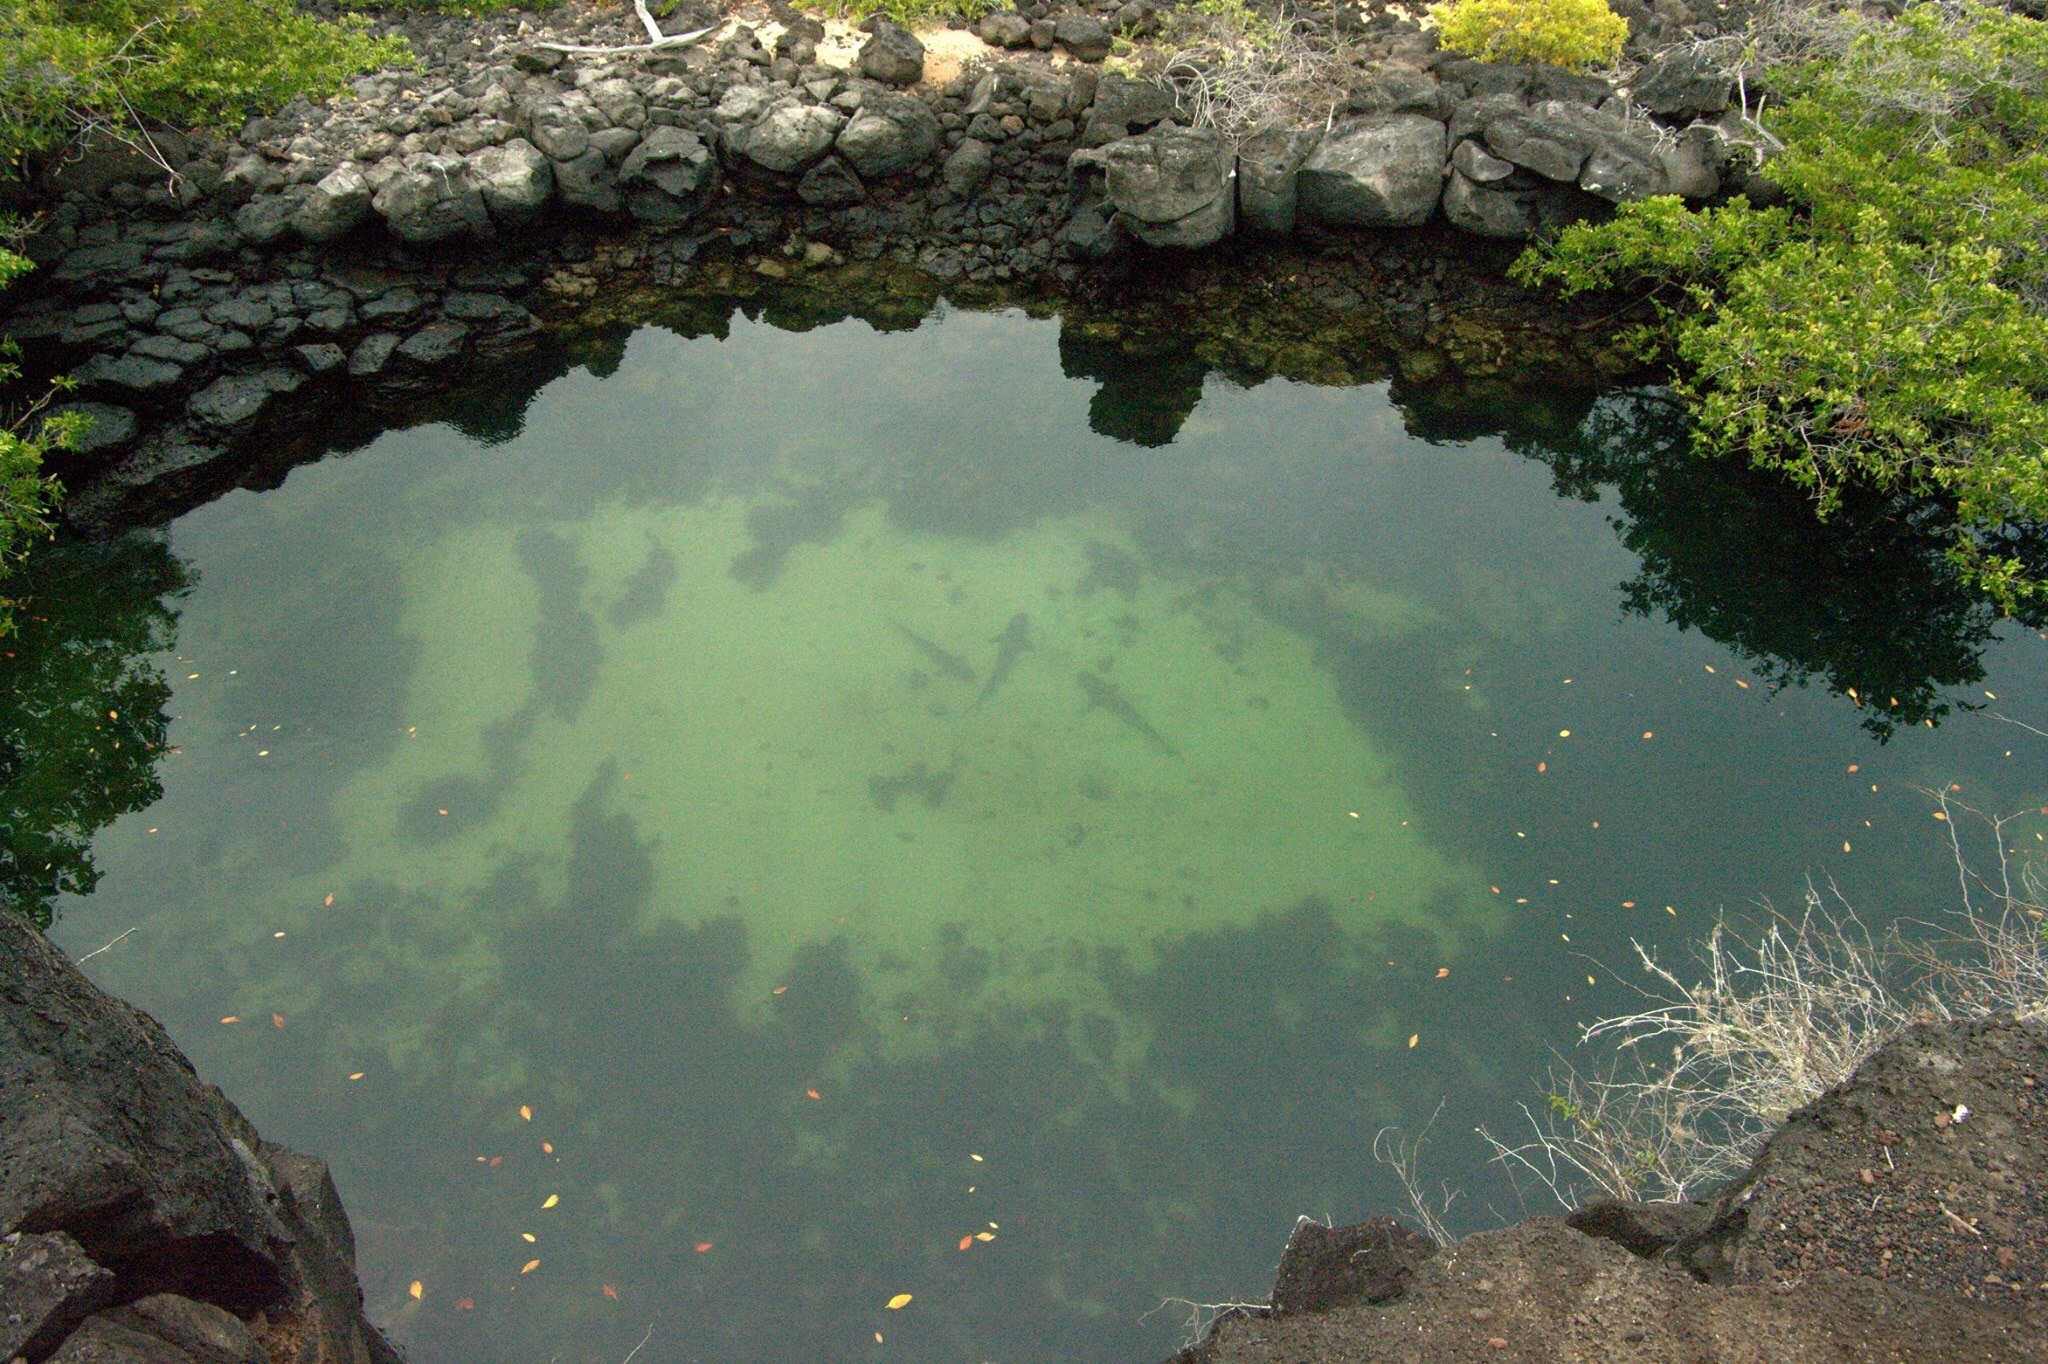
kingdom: Animalia
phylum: Chordata
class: Elasmobranchii
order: Carcharhiniformes
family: Carcharhinidae
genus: Triaenodon
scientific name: Triaenodon obesus
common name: Whitetip reef shark
